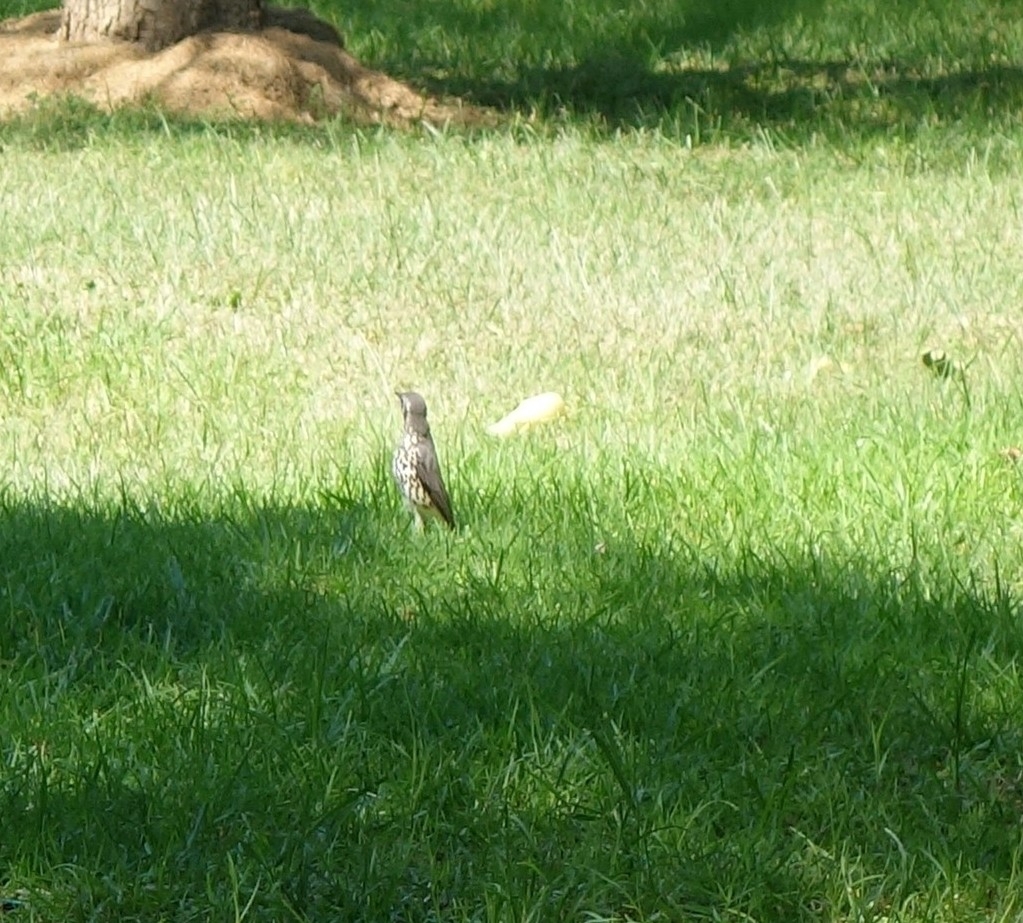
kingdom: Animalia
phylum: Chordata
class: Aves
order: Passeriformes
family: Turdidae
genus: Psophocichla
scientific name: Psophocichla litsitsirupa
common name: Groundscraper thrush
